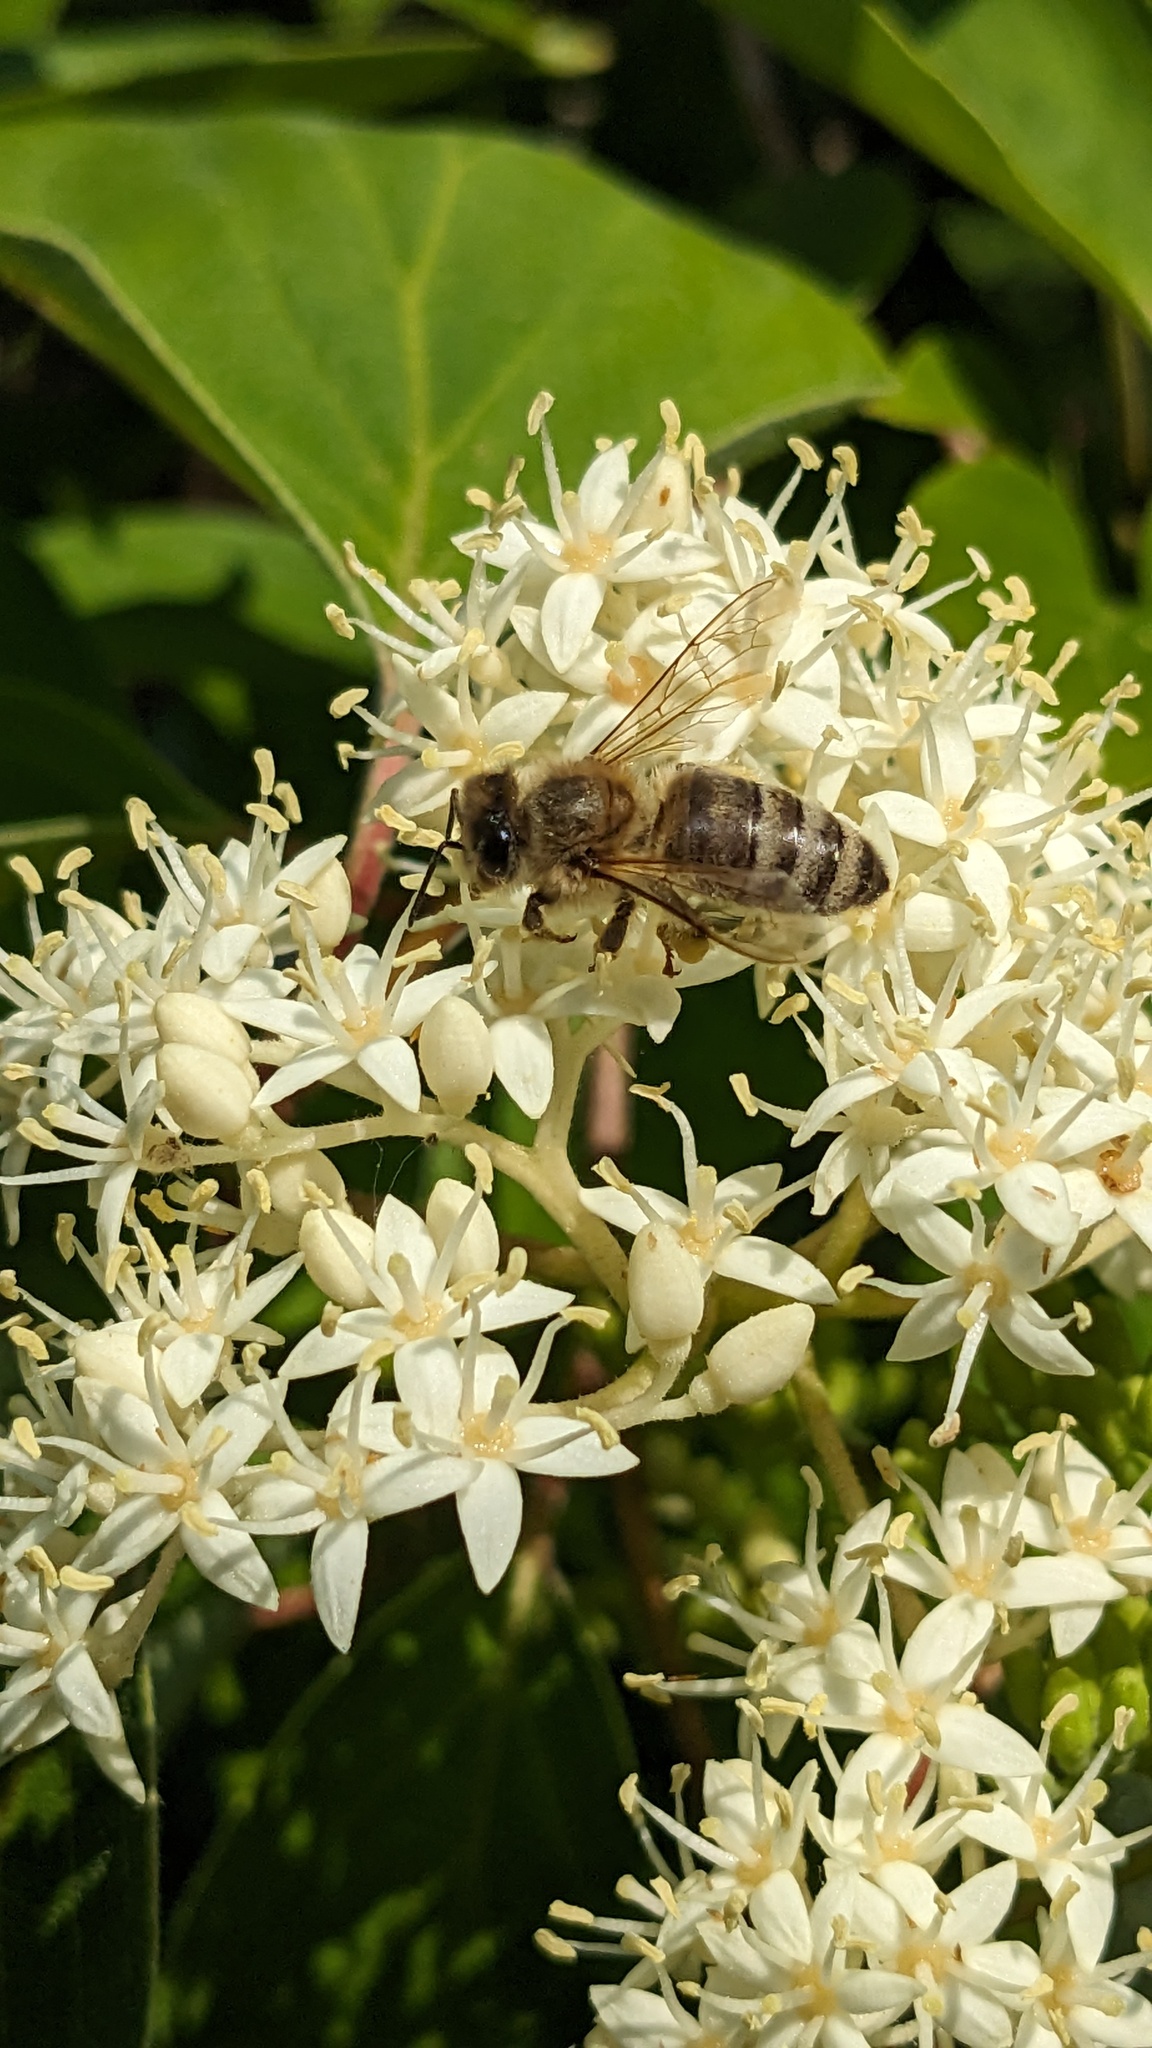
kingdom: Animalia
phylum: Arthropoda
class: Insecta
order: Hymenoptera
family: Apidae
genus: Apis
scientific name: Apis mellifera
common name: Honey bee
